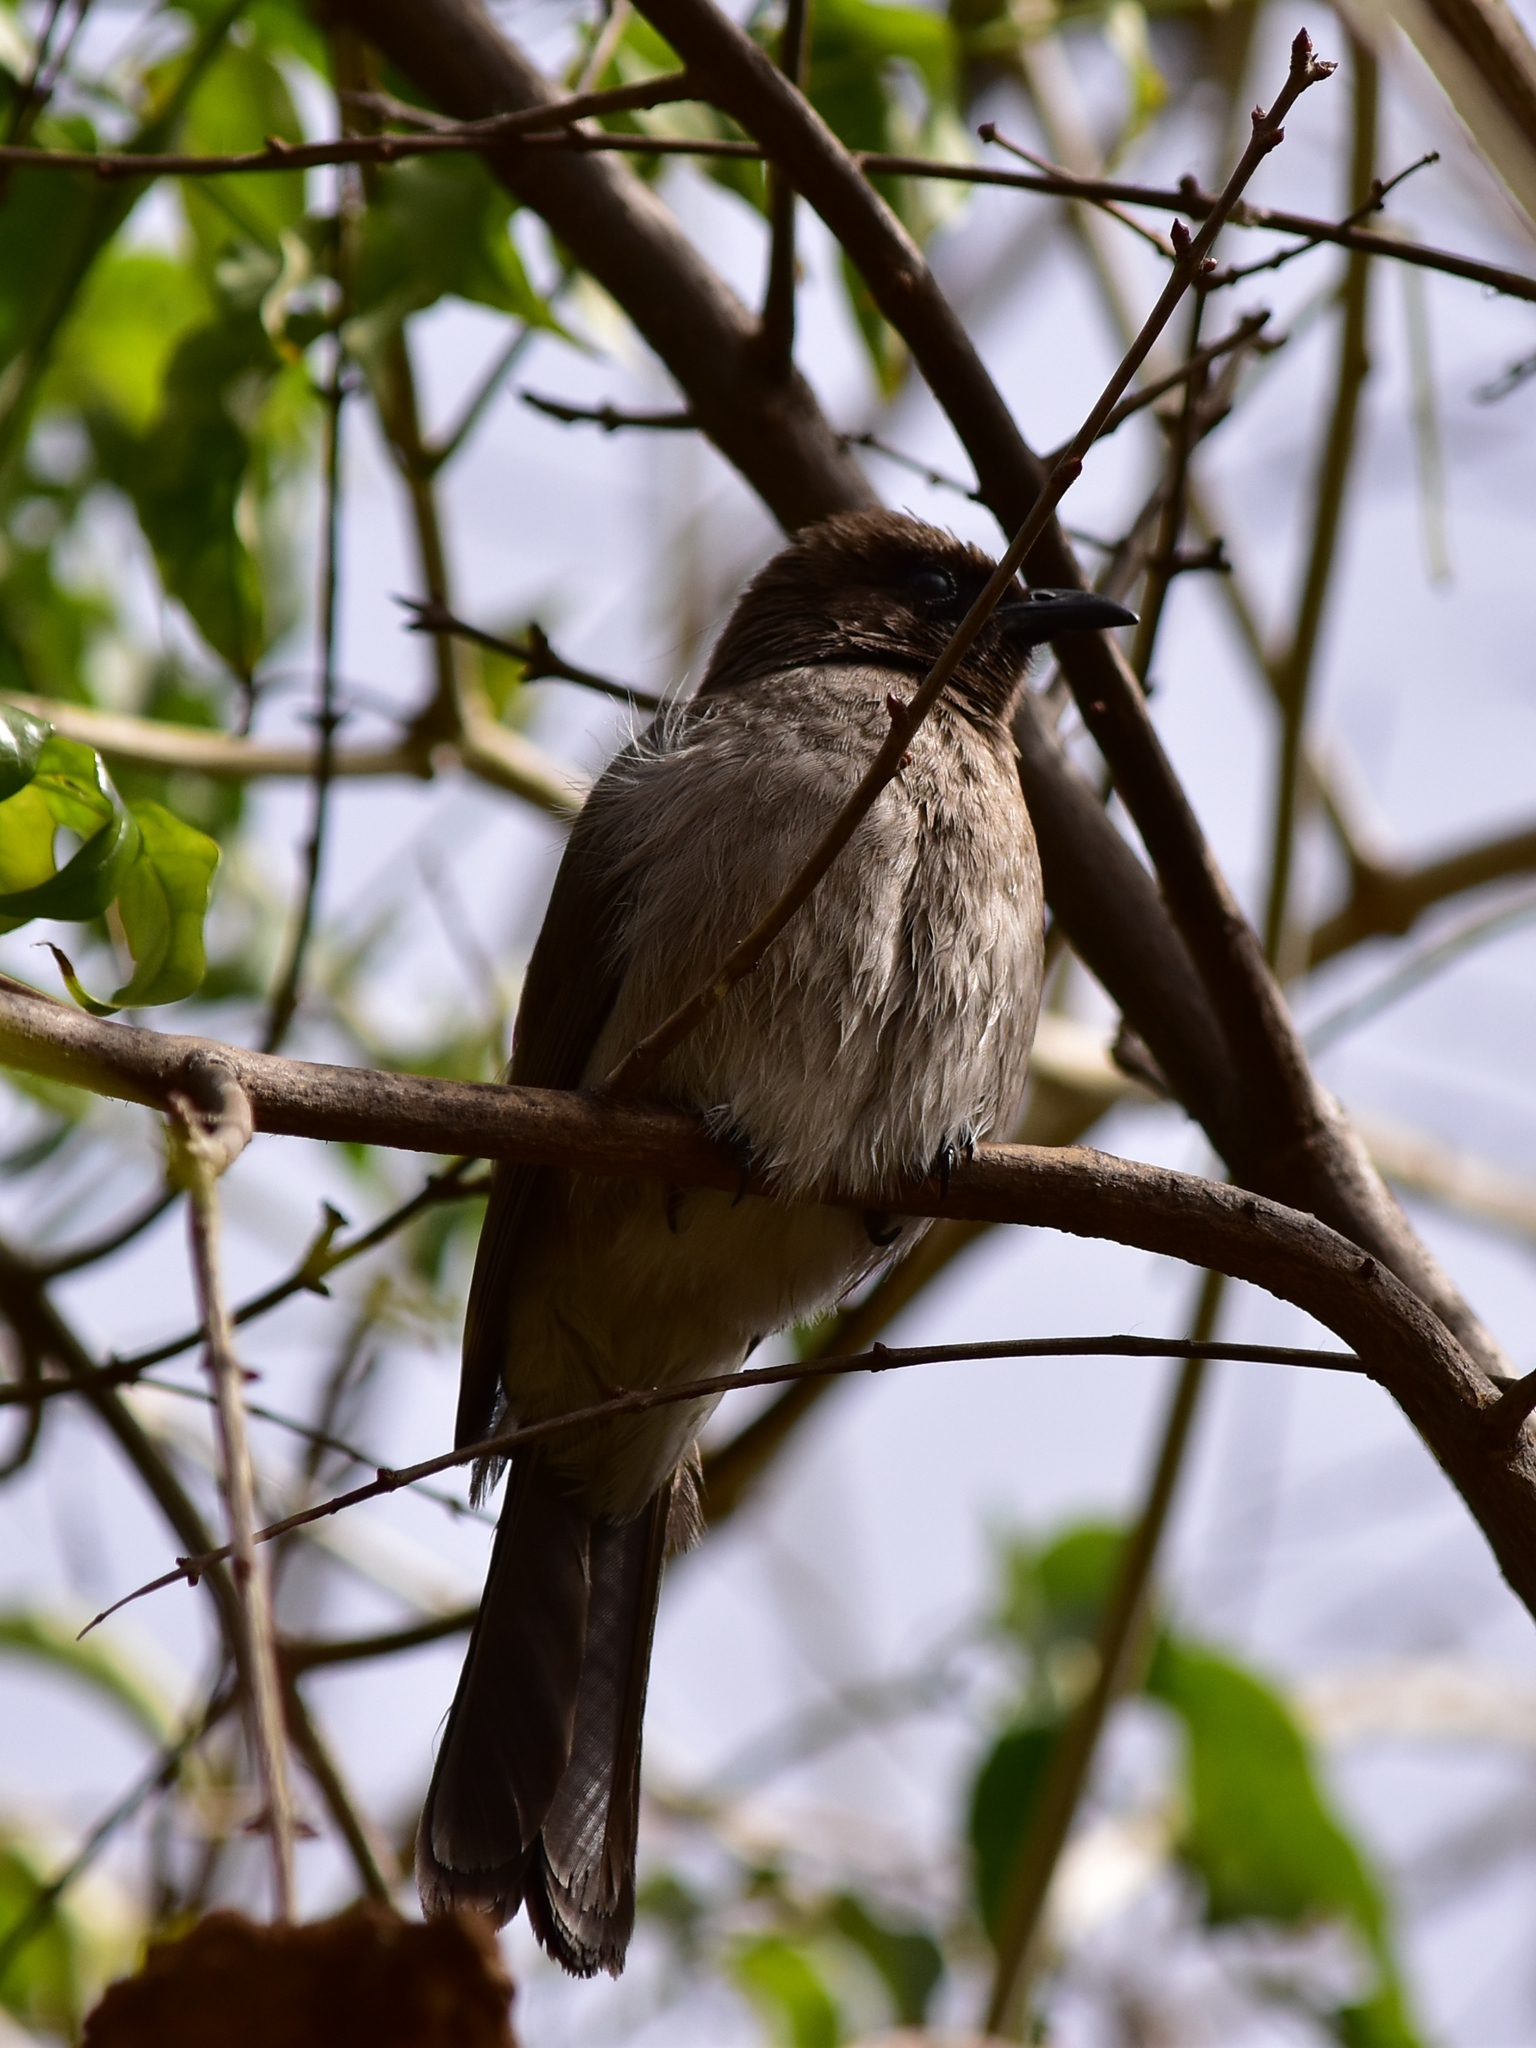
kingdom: Animalia
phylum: Chordata
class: Aves
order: Passeriformes
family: Pycnonotidae
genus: Pycnonotus
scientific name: Pycnonotus barbatus
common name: Common bulbul
